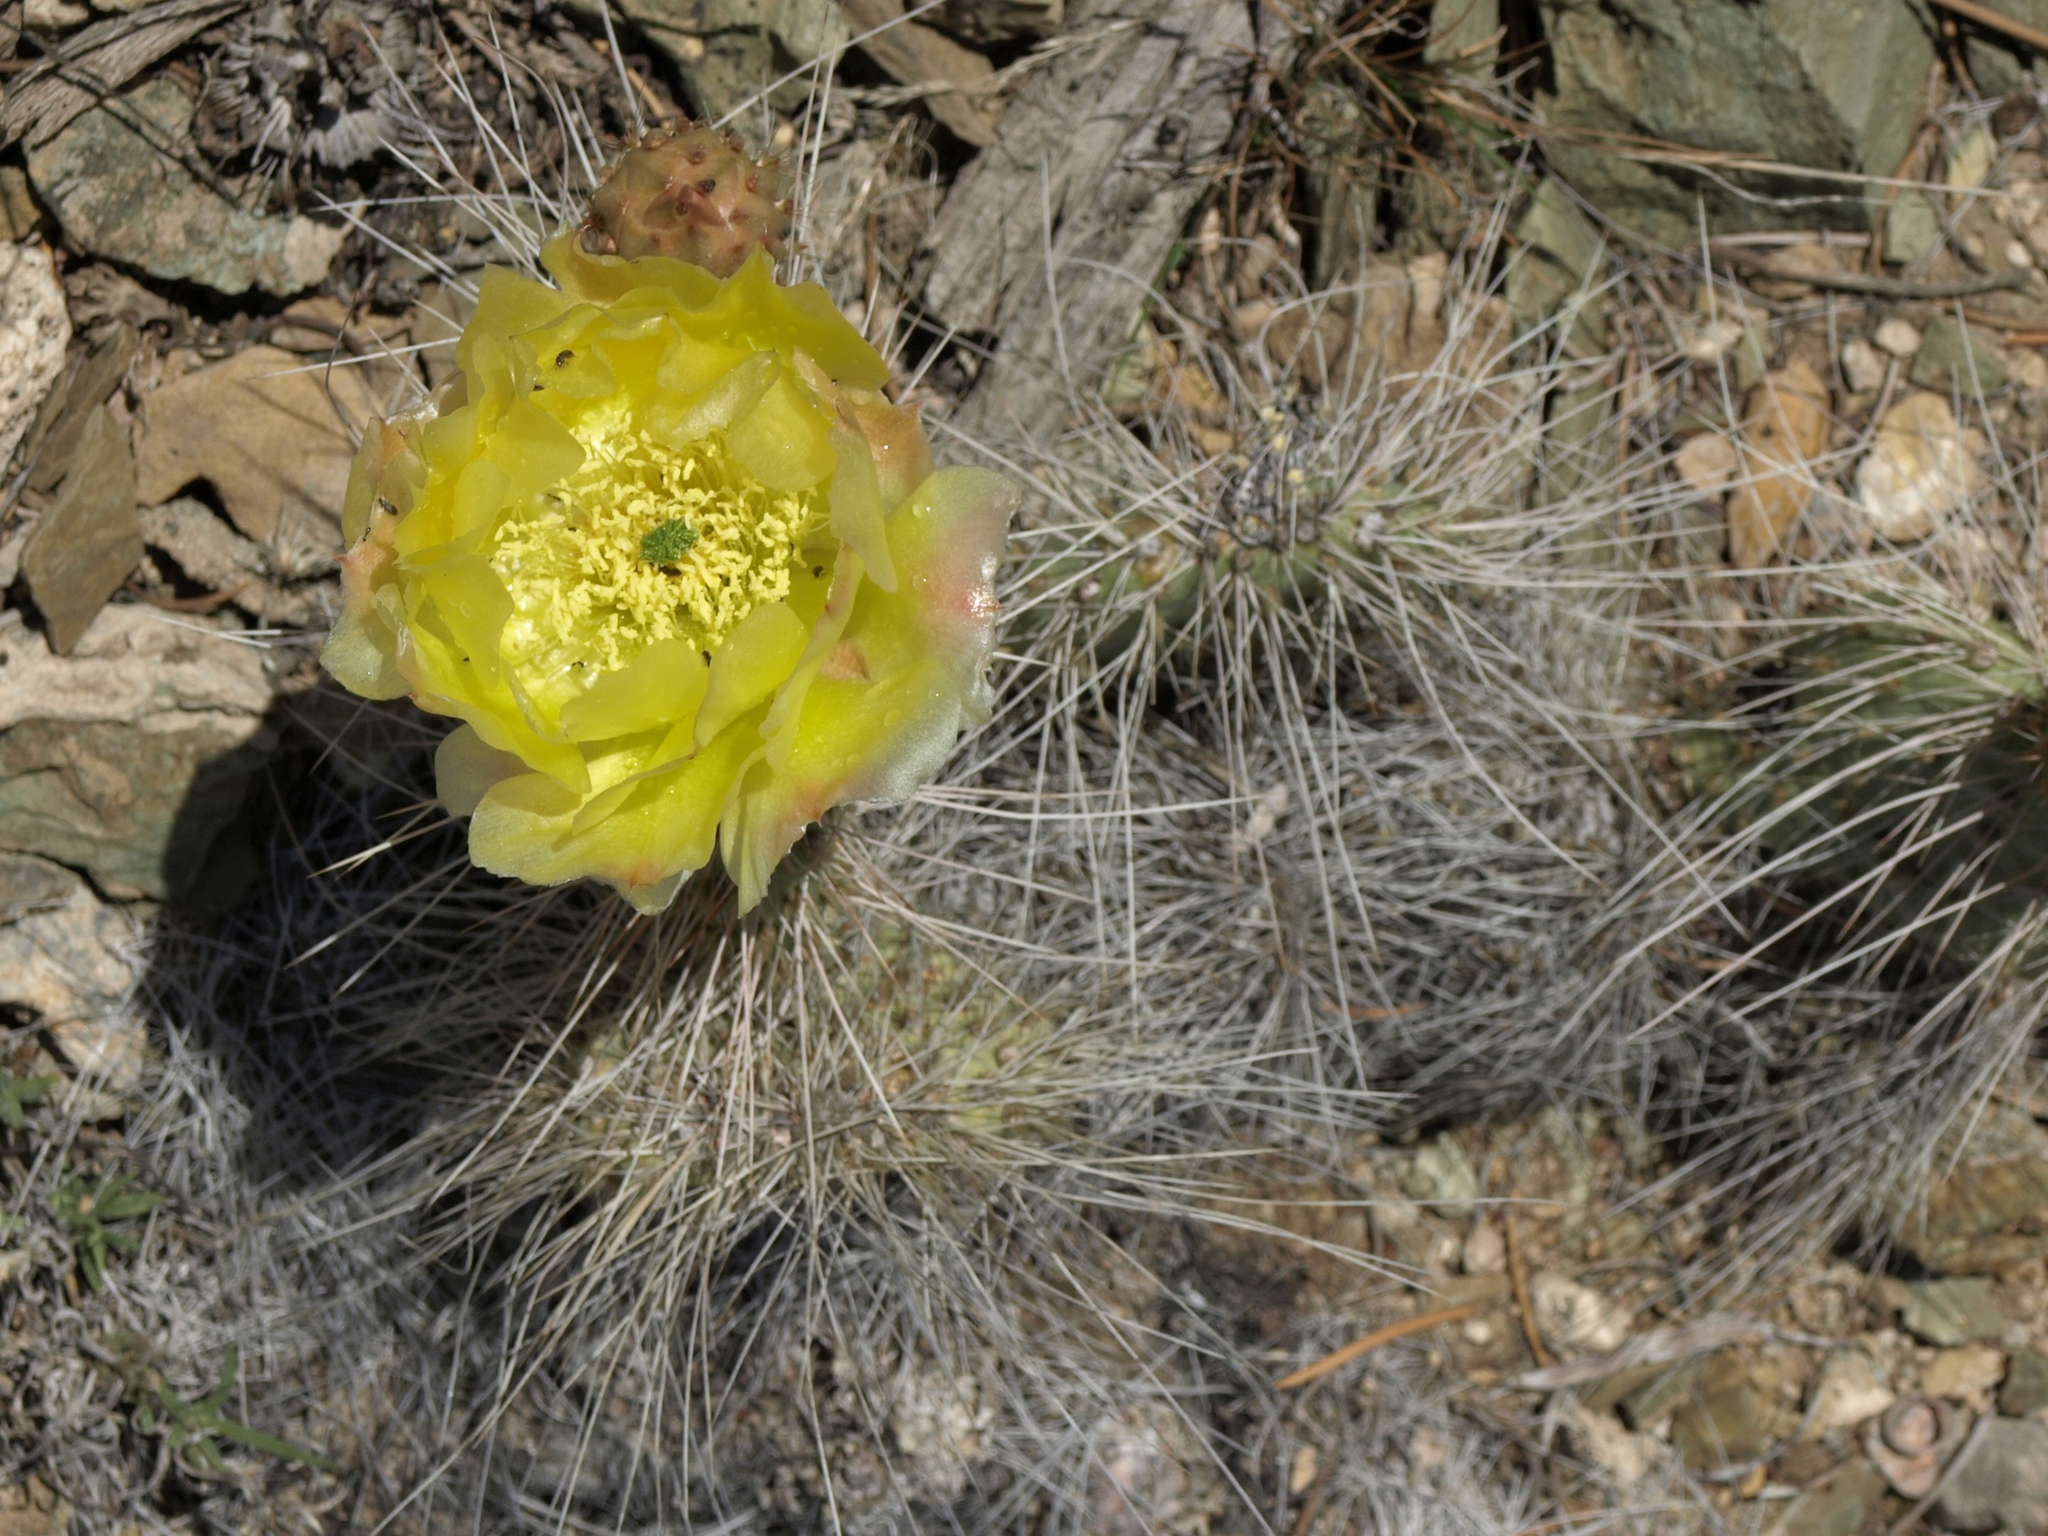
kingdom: Plantae
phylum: Tracheophyta
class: Magnoliopsida
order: Caryophyllales
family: Cactaceae
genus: Opuntia
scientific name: Opuntia polyacantha
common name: Plains prickly-pear
